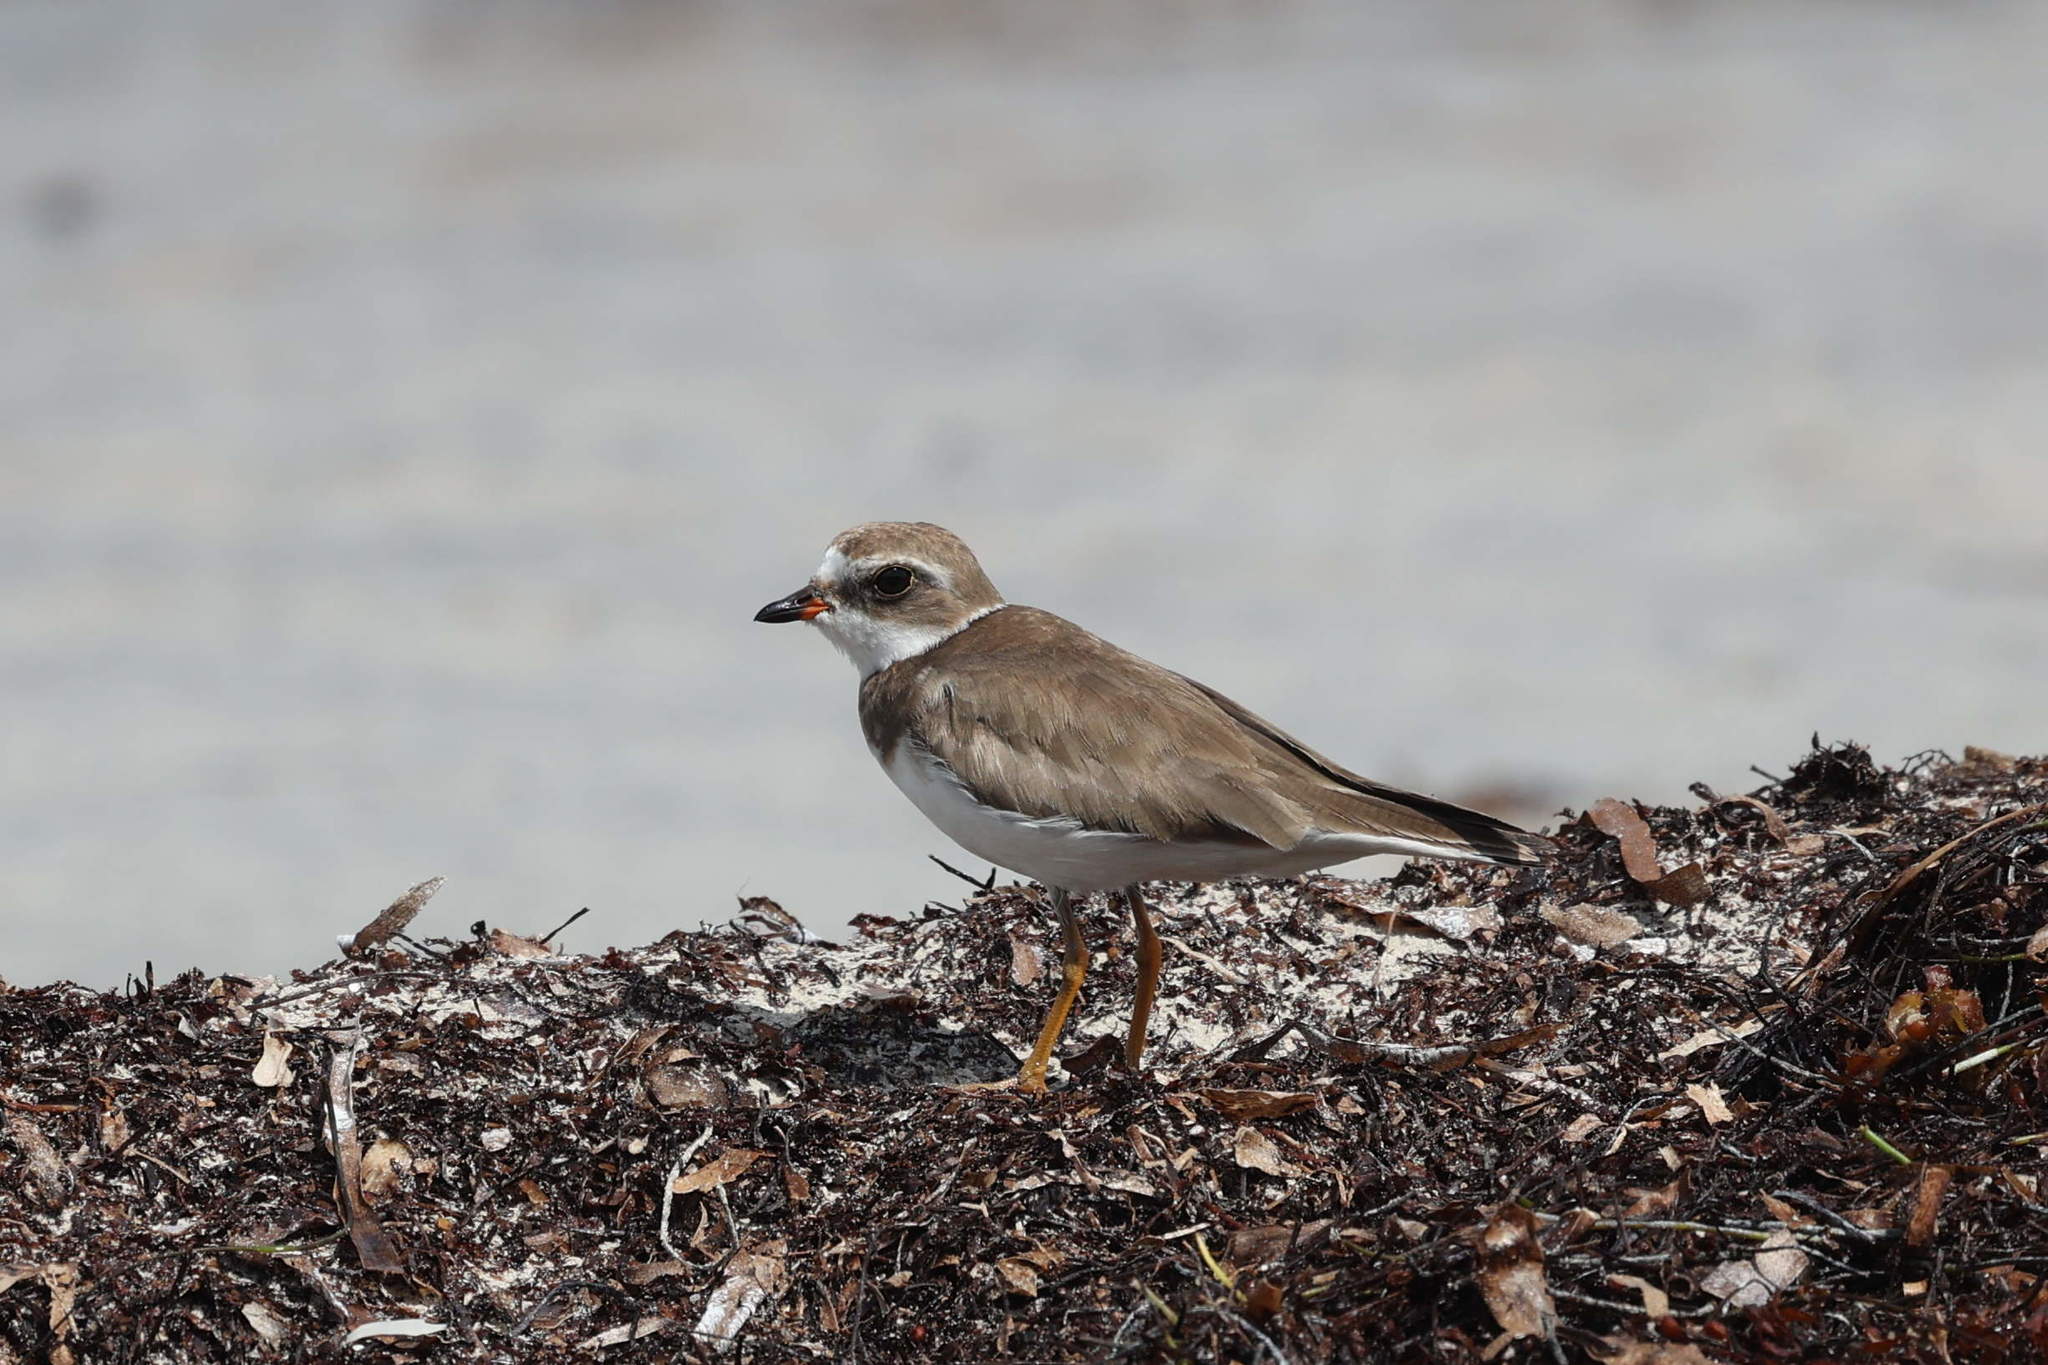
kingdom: Animalia
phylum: Chordata
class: Aves
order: Charadriiformes
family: Charadriidae
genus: Charadrius
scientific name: Charadrius semipalmatus
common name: Semipalmated plover
